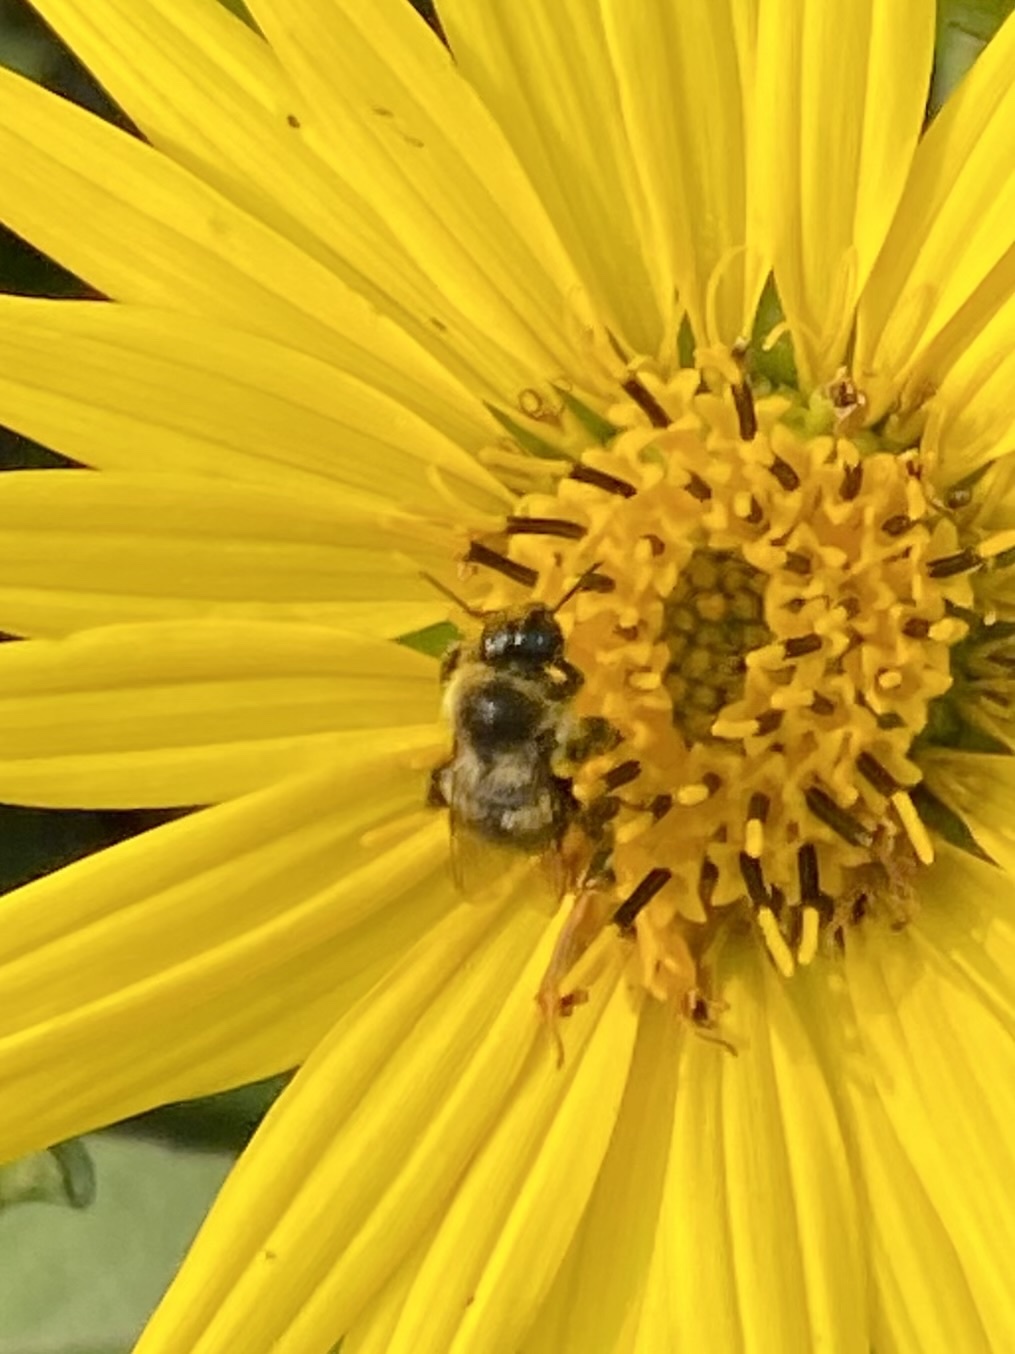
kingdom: Animalia
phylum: Arthropoda
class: Insecta
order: Hymenoptera
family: Apidae
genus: Bombus
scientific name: Bombus impatiens
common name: Common eastern bumble bee
